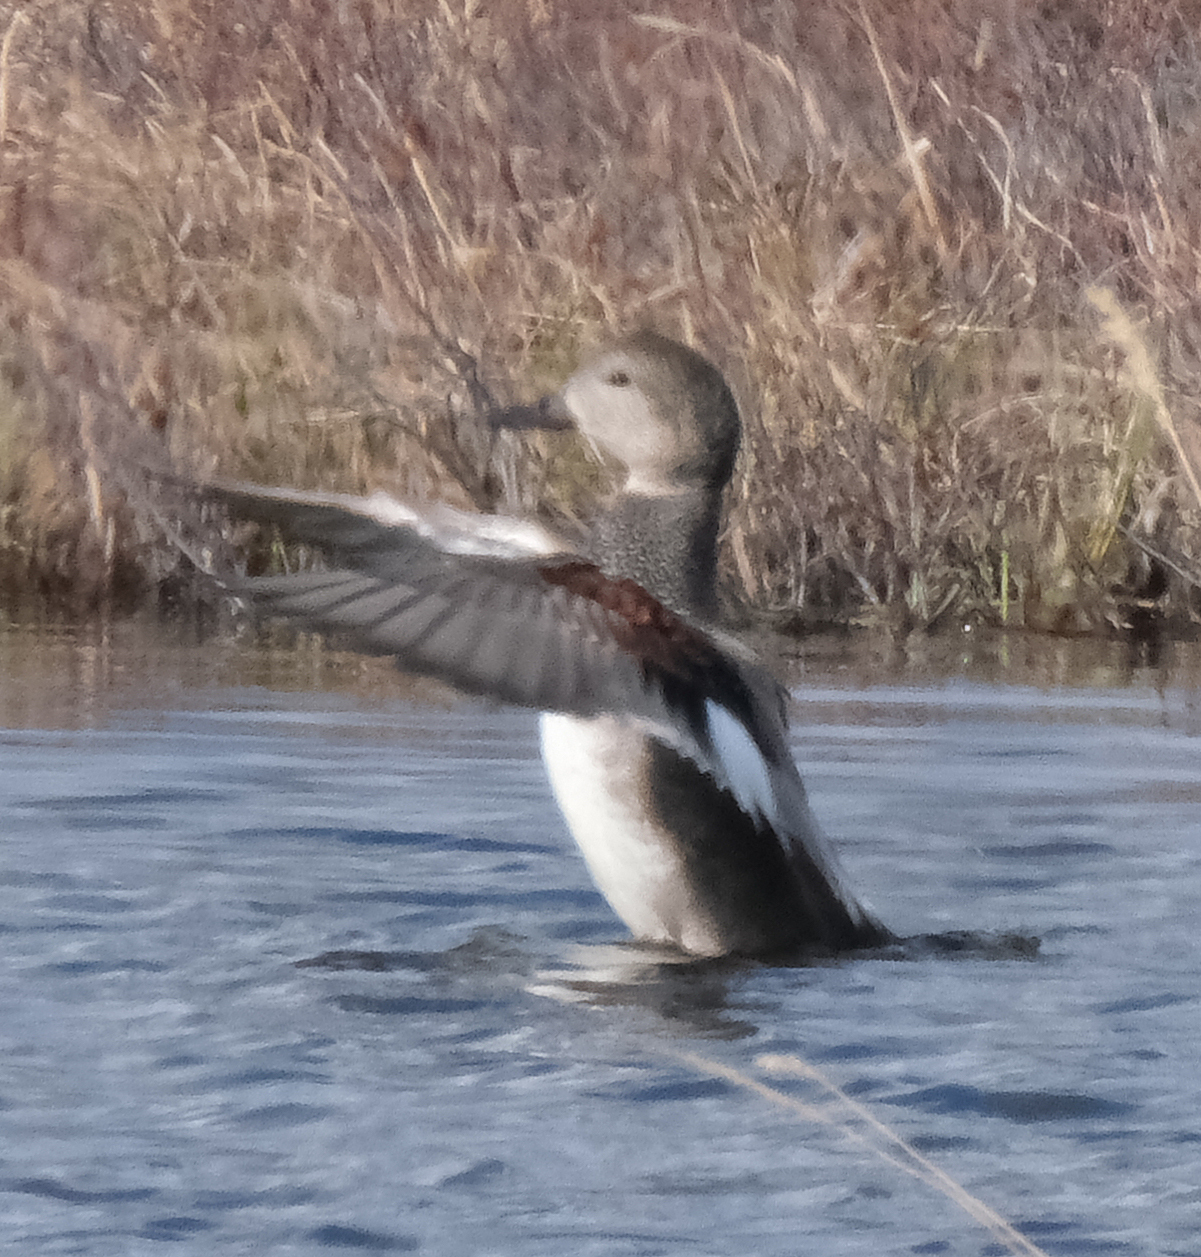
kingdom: Animalia
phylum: Chordata
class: Aves
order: Anseriformes
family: Anatidae
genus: Mareca
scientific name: Mareca strepera
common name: Gadwall
